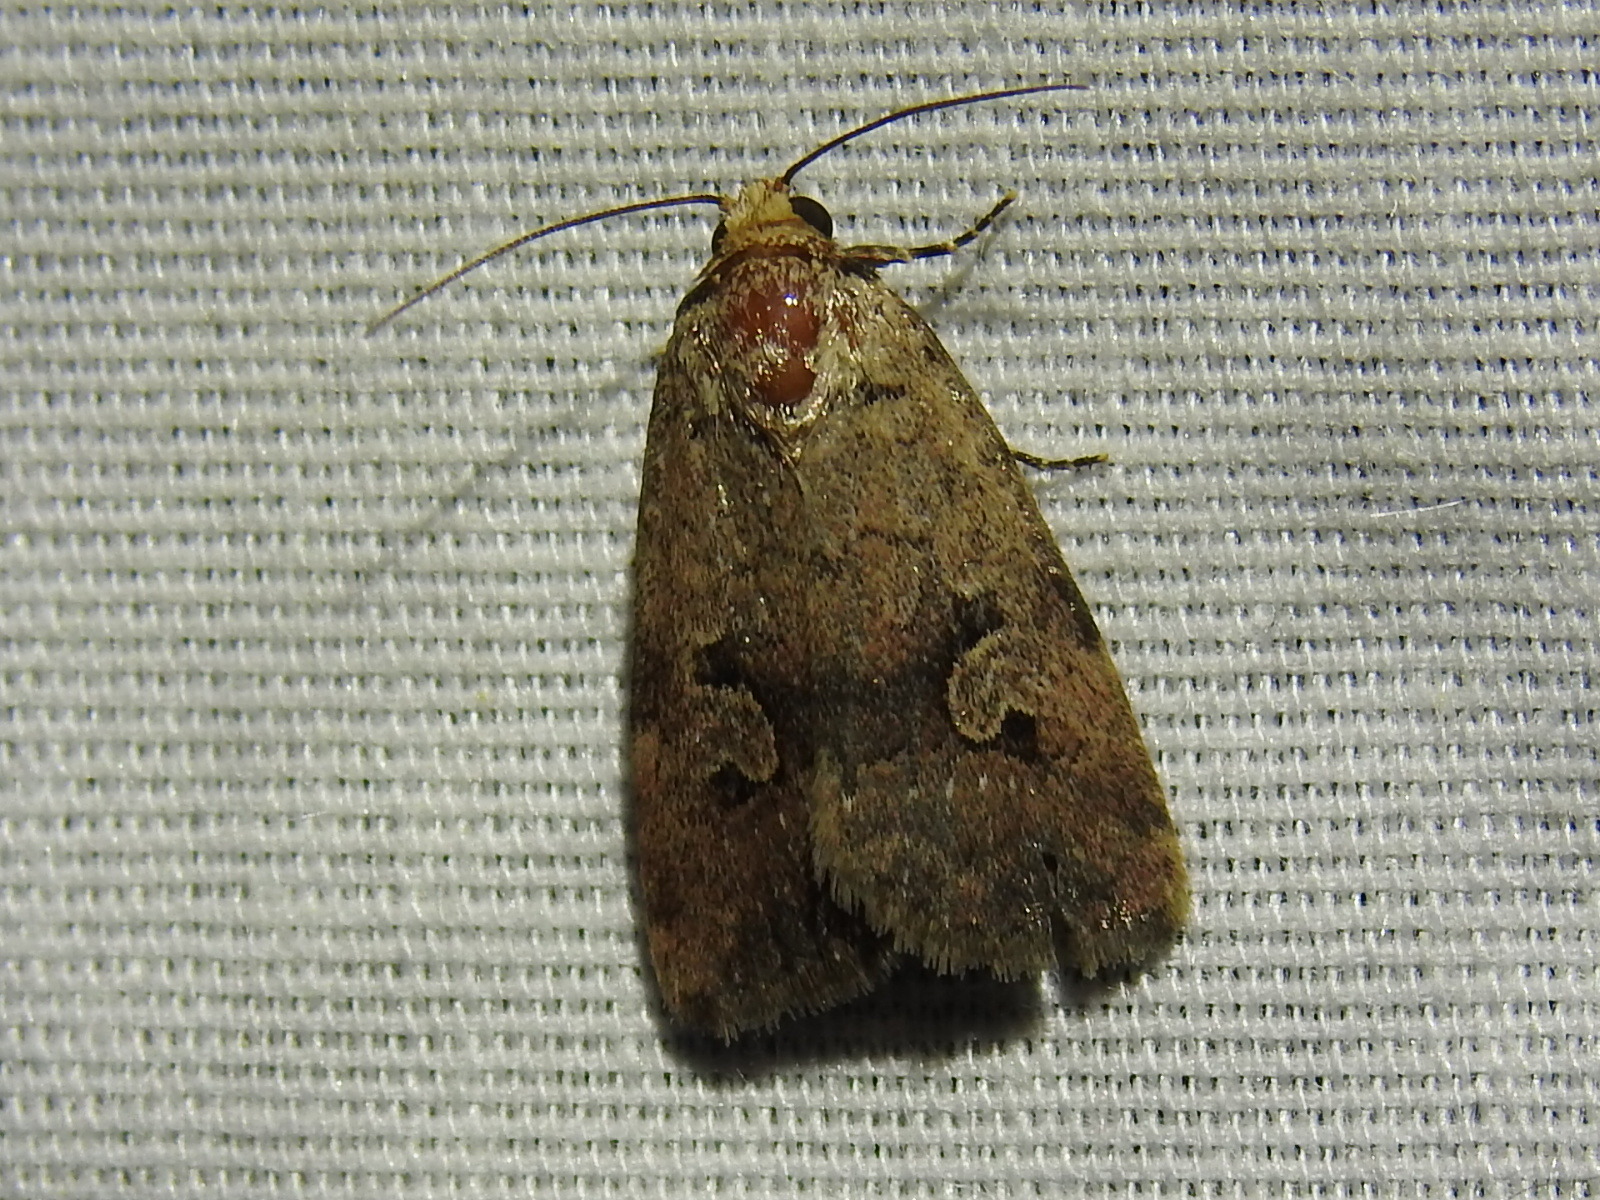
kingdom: Animalia
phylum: Arthropoda
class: Insecta
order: Lepidoptera
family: Noctuidae
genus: Elaphria
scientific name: Elaphria festivoides
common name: Festive midget
